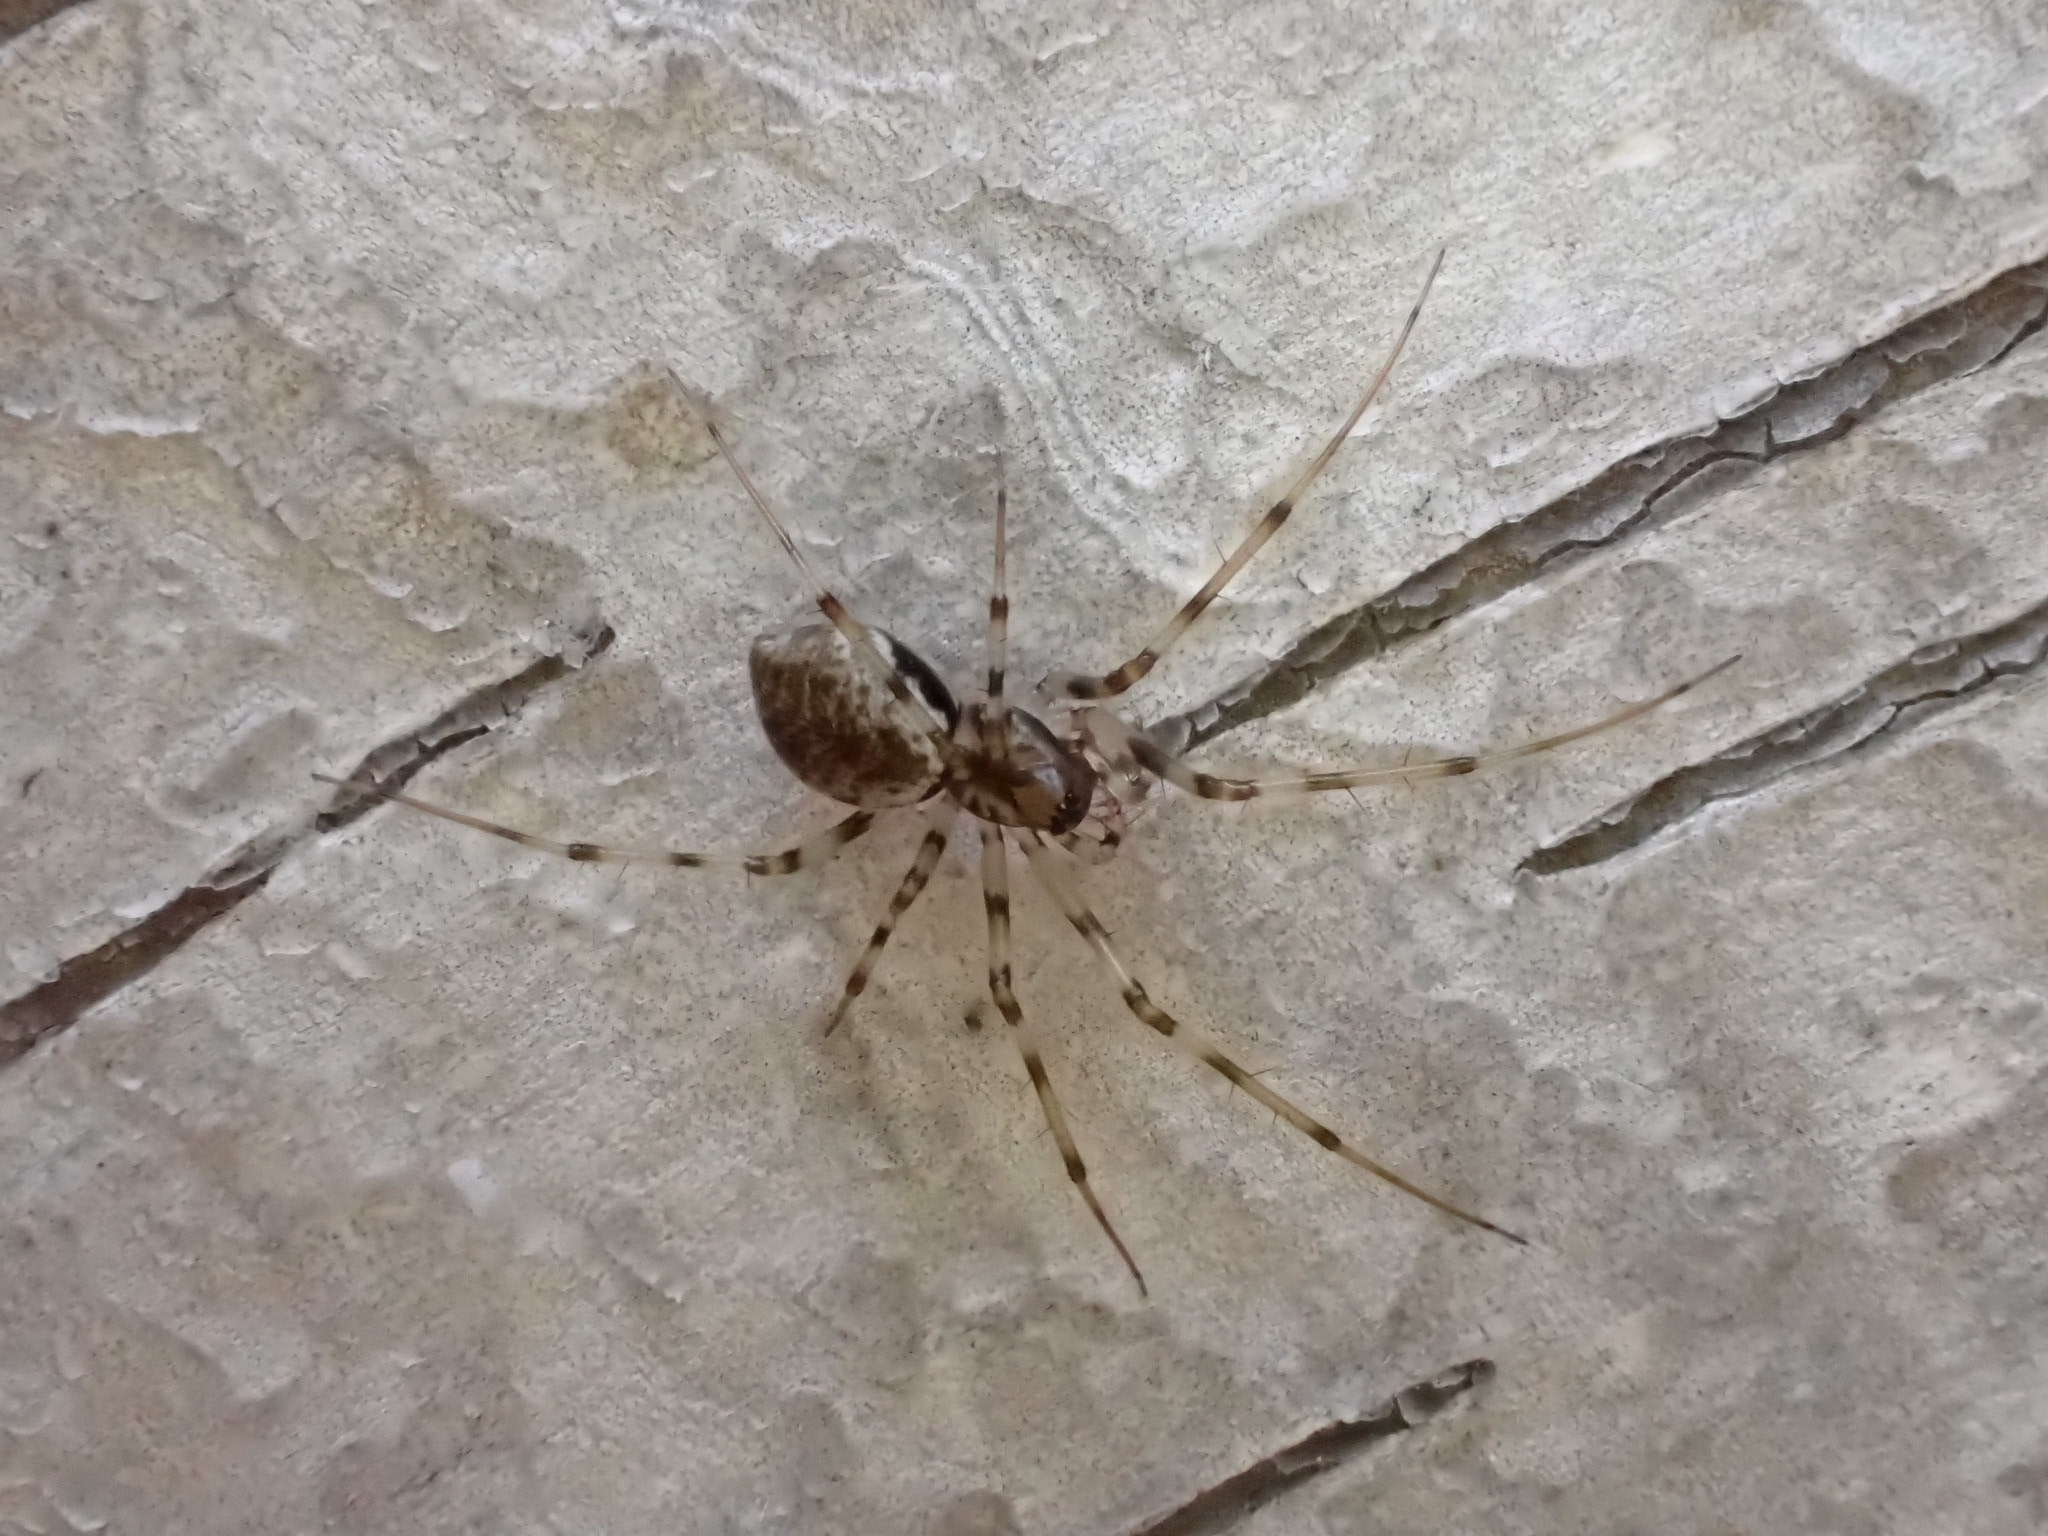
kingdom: Animalia
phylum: Arthropoda
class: Arachnida
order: Araneae
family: Linyphiidae
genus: Drapetisca
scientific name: Drapetisca socialis
